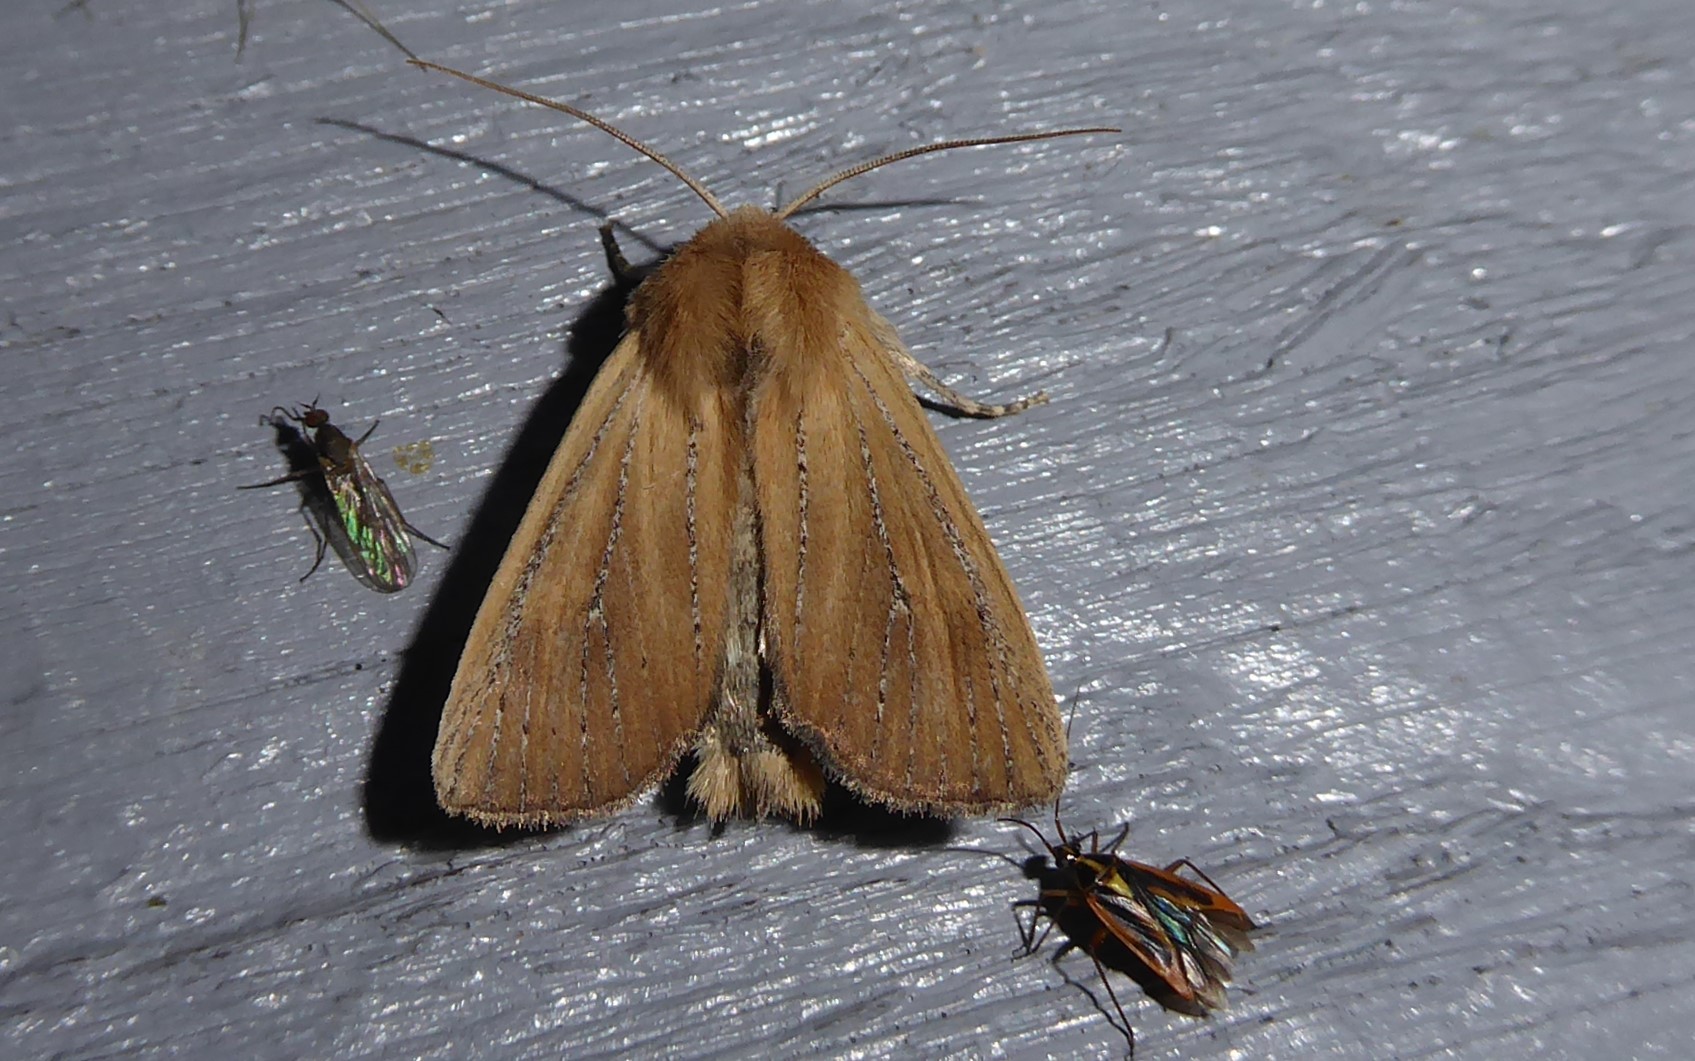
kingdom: Animalia
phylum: Arthropoda
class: Insecta
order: Lepidoptera
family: Noctuidae
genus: Ichneutica
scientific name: Ichneutica blenheimensis
